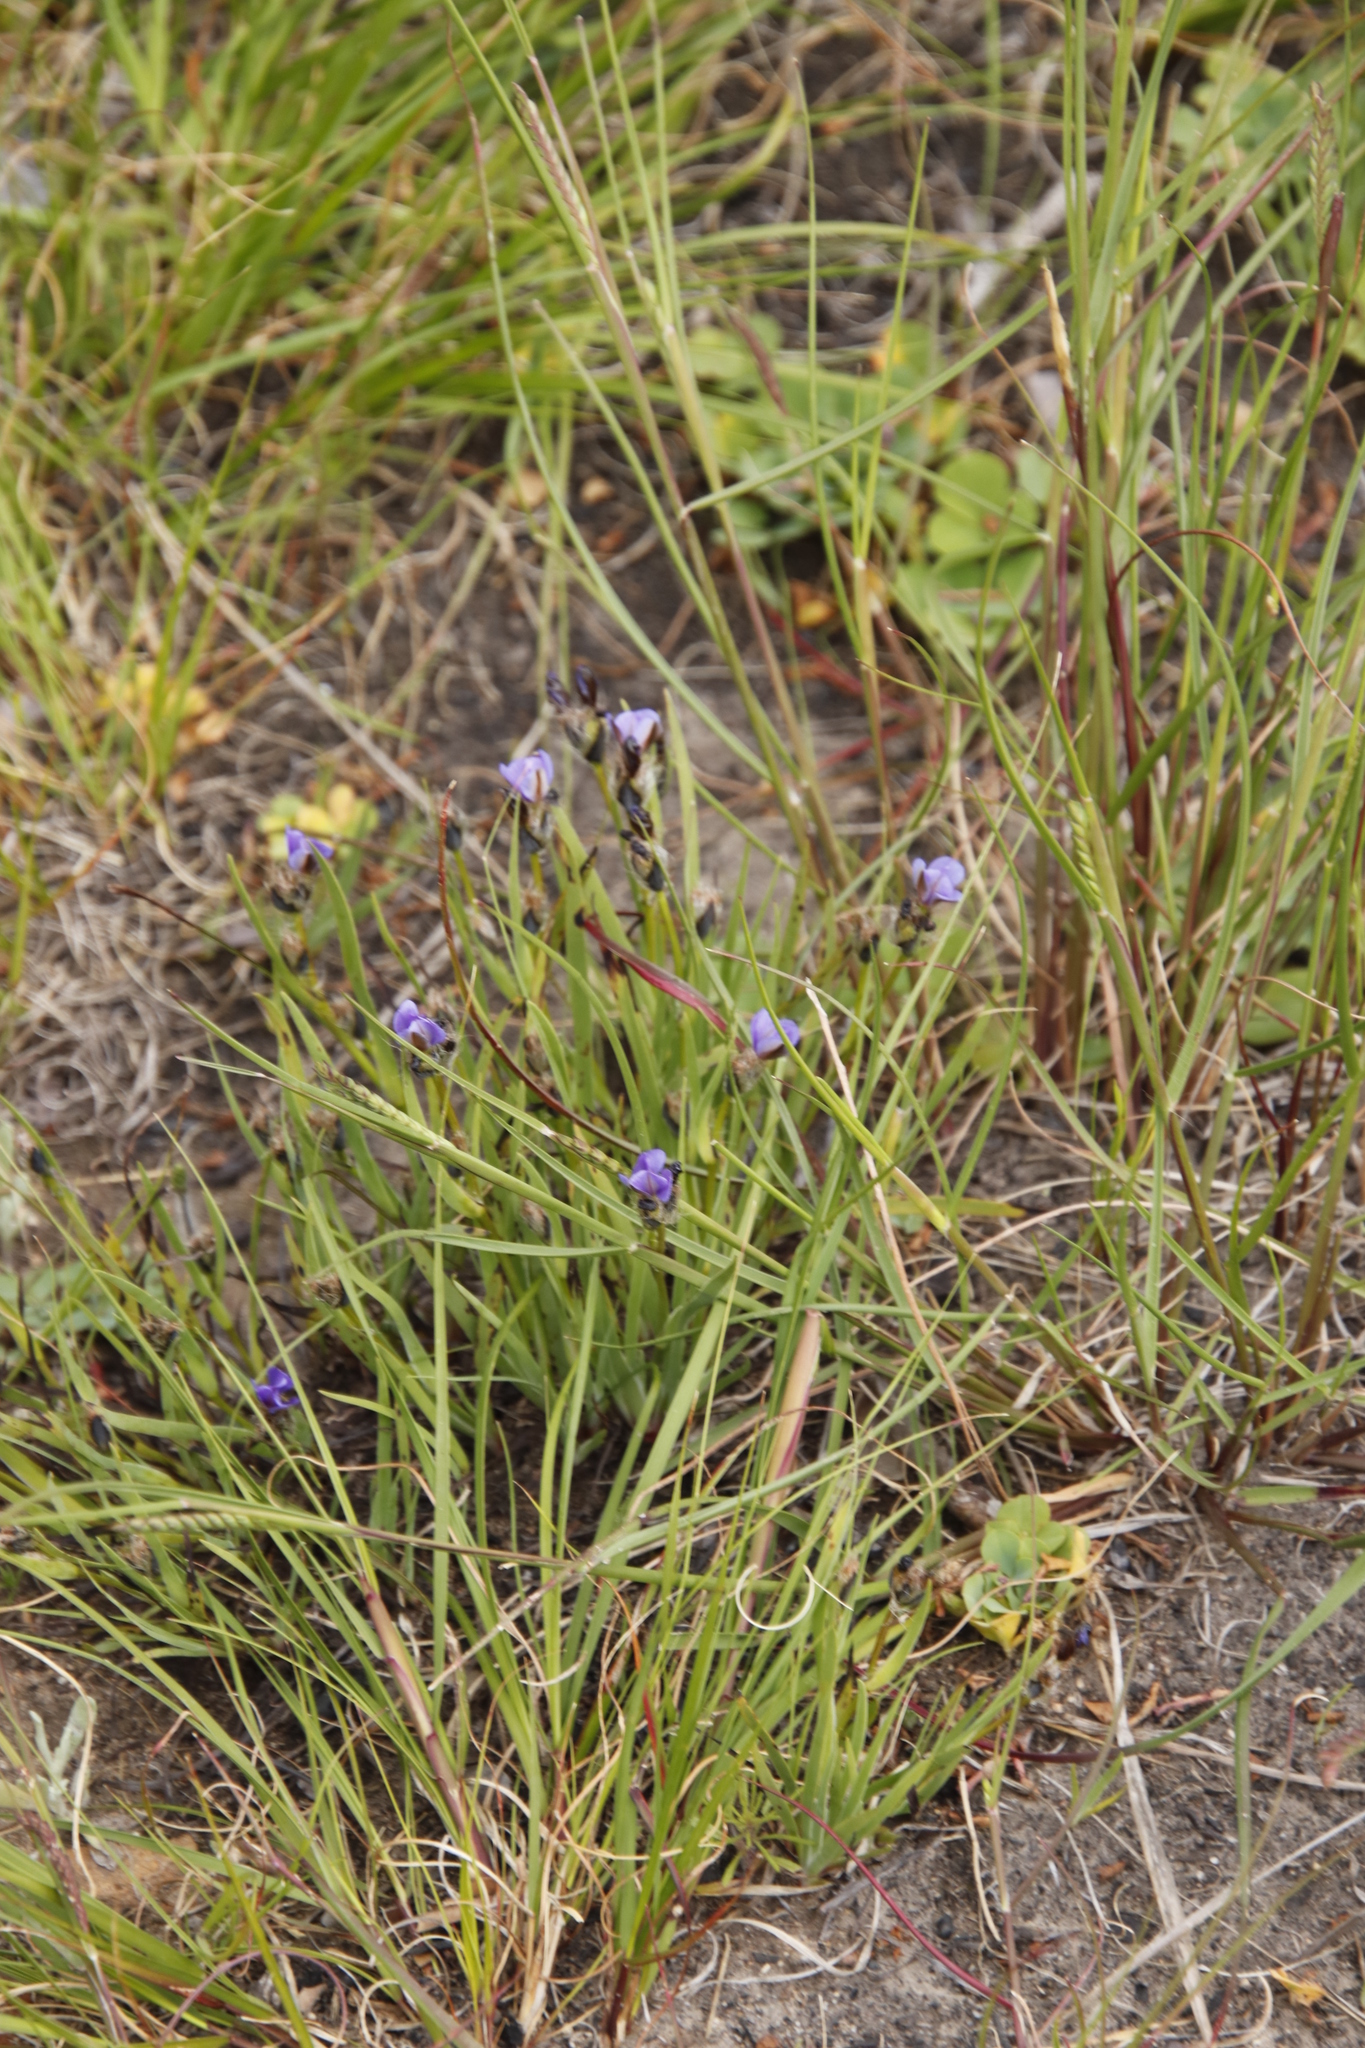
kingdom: Plantae
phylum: Tracheophyta
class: Liliopsida
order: Asparagales
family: Iridaceae
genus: Aristea
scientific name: Aristea africana
